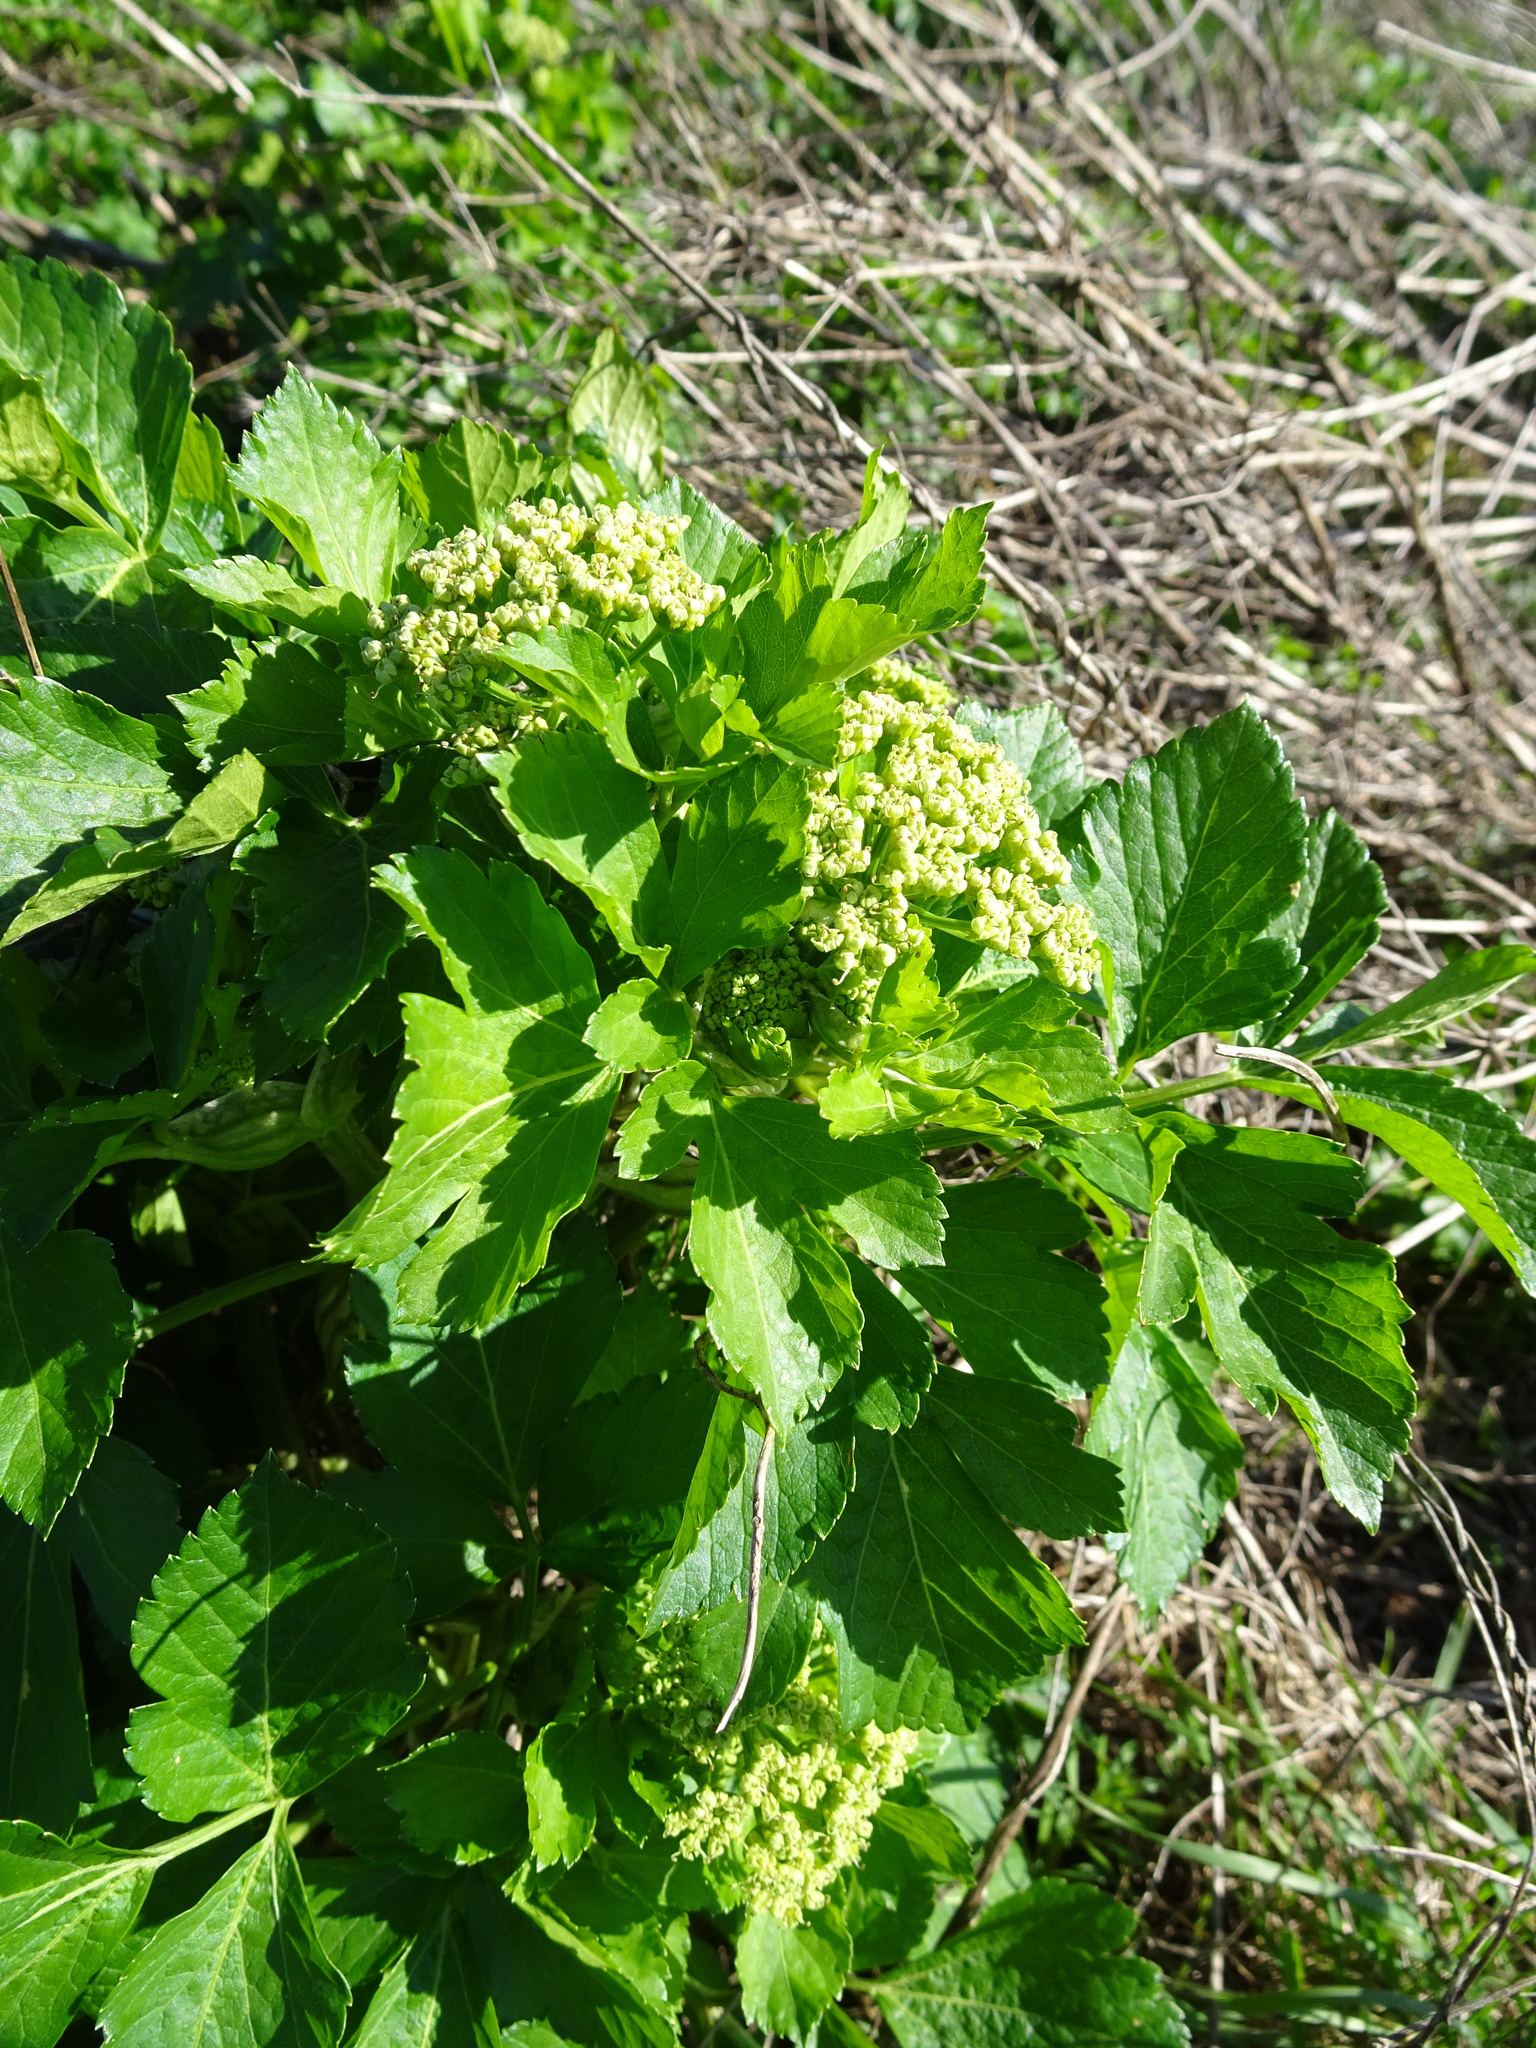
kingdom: Plantae
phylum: Tracheophyta
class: Magnoliopsida
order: Apiales
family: Apiaceae
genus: Smyrnium
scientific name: Smyrnium olusatrum
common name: Alexanders
